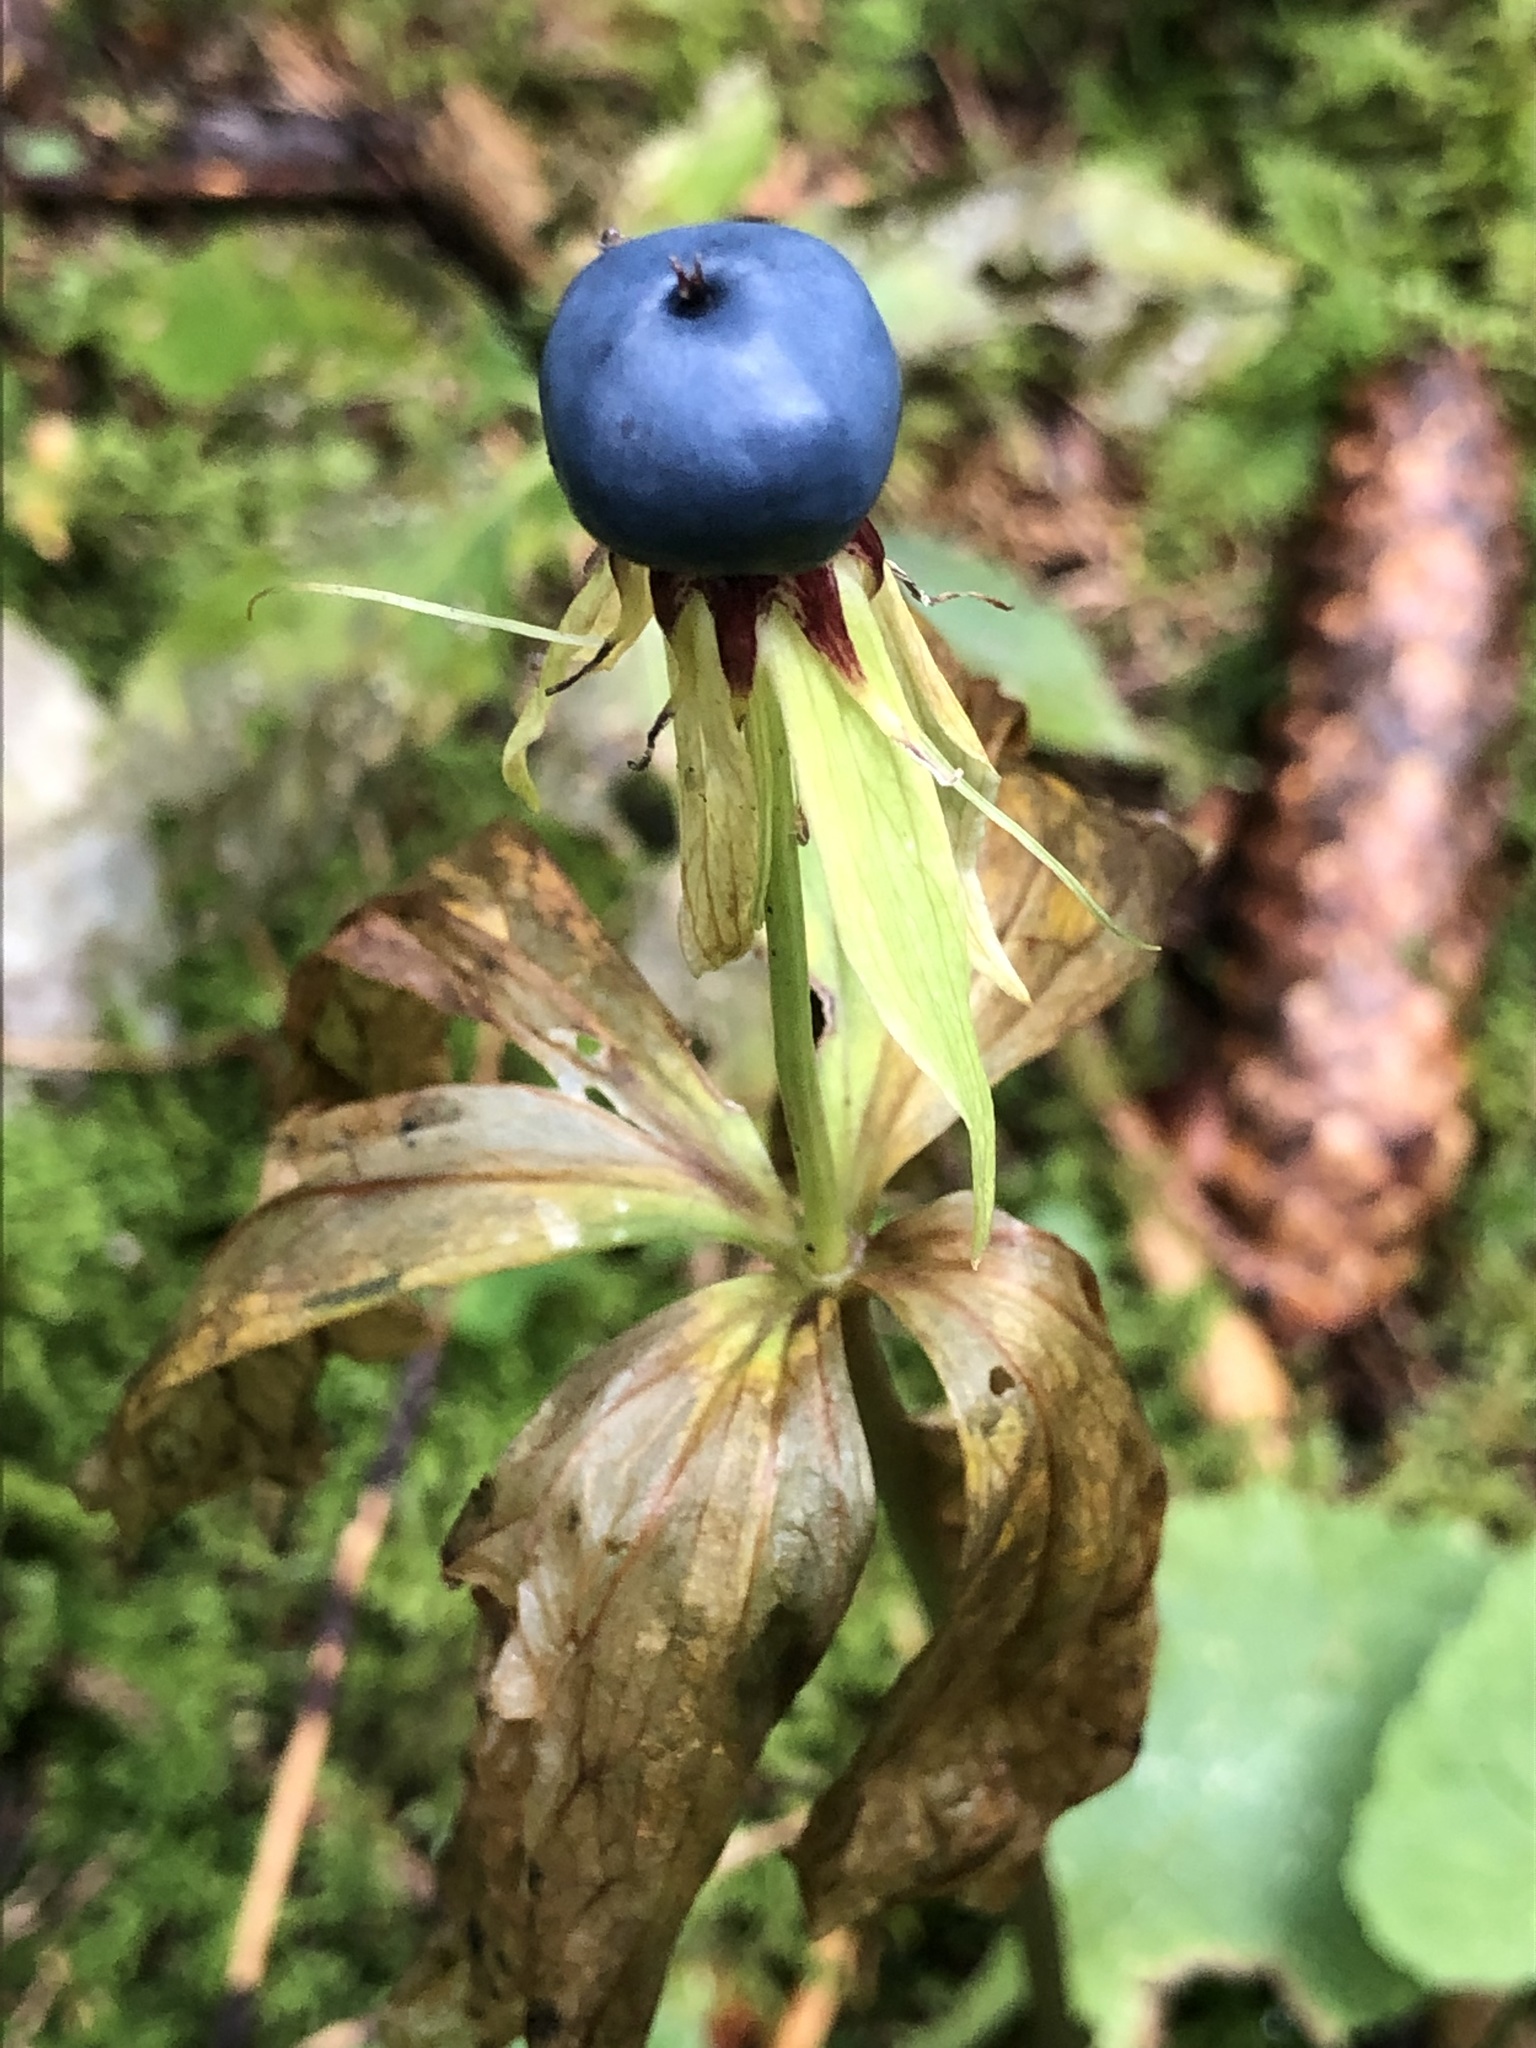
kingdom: Plantae
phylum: Tracheophyta
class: Liliopsida
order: Liliales
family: Melanthiaceae
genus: Paris
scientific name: Paris quadrifolia
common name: Herb-paris
